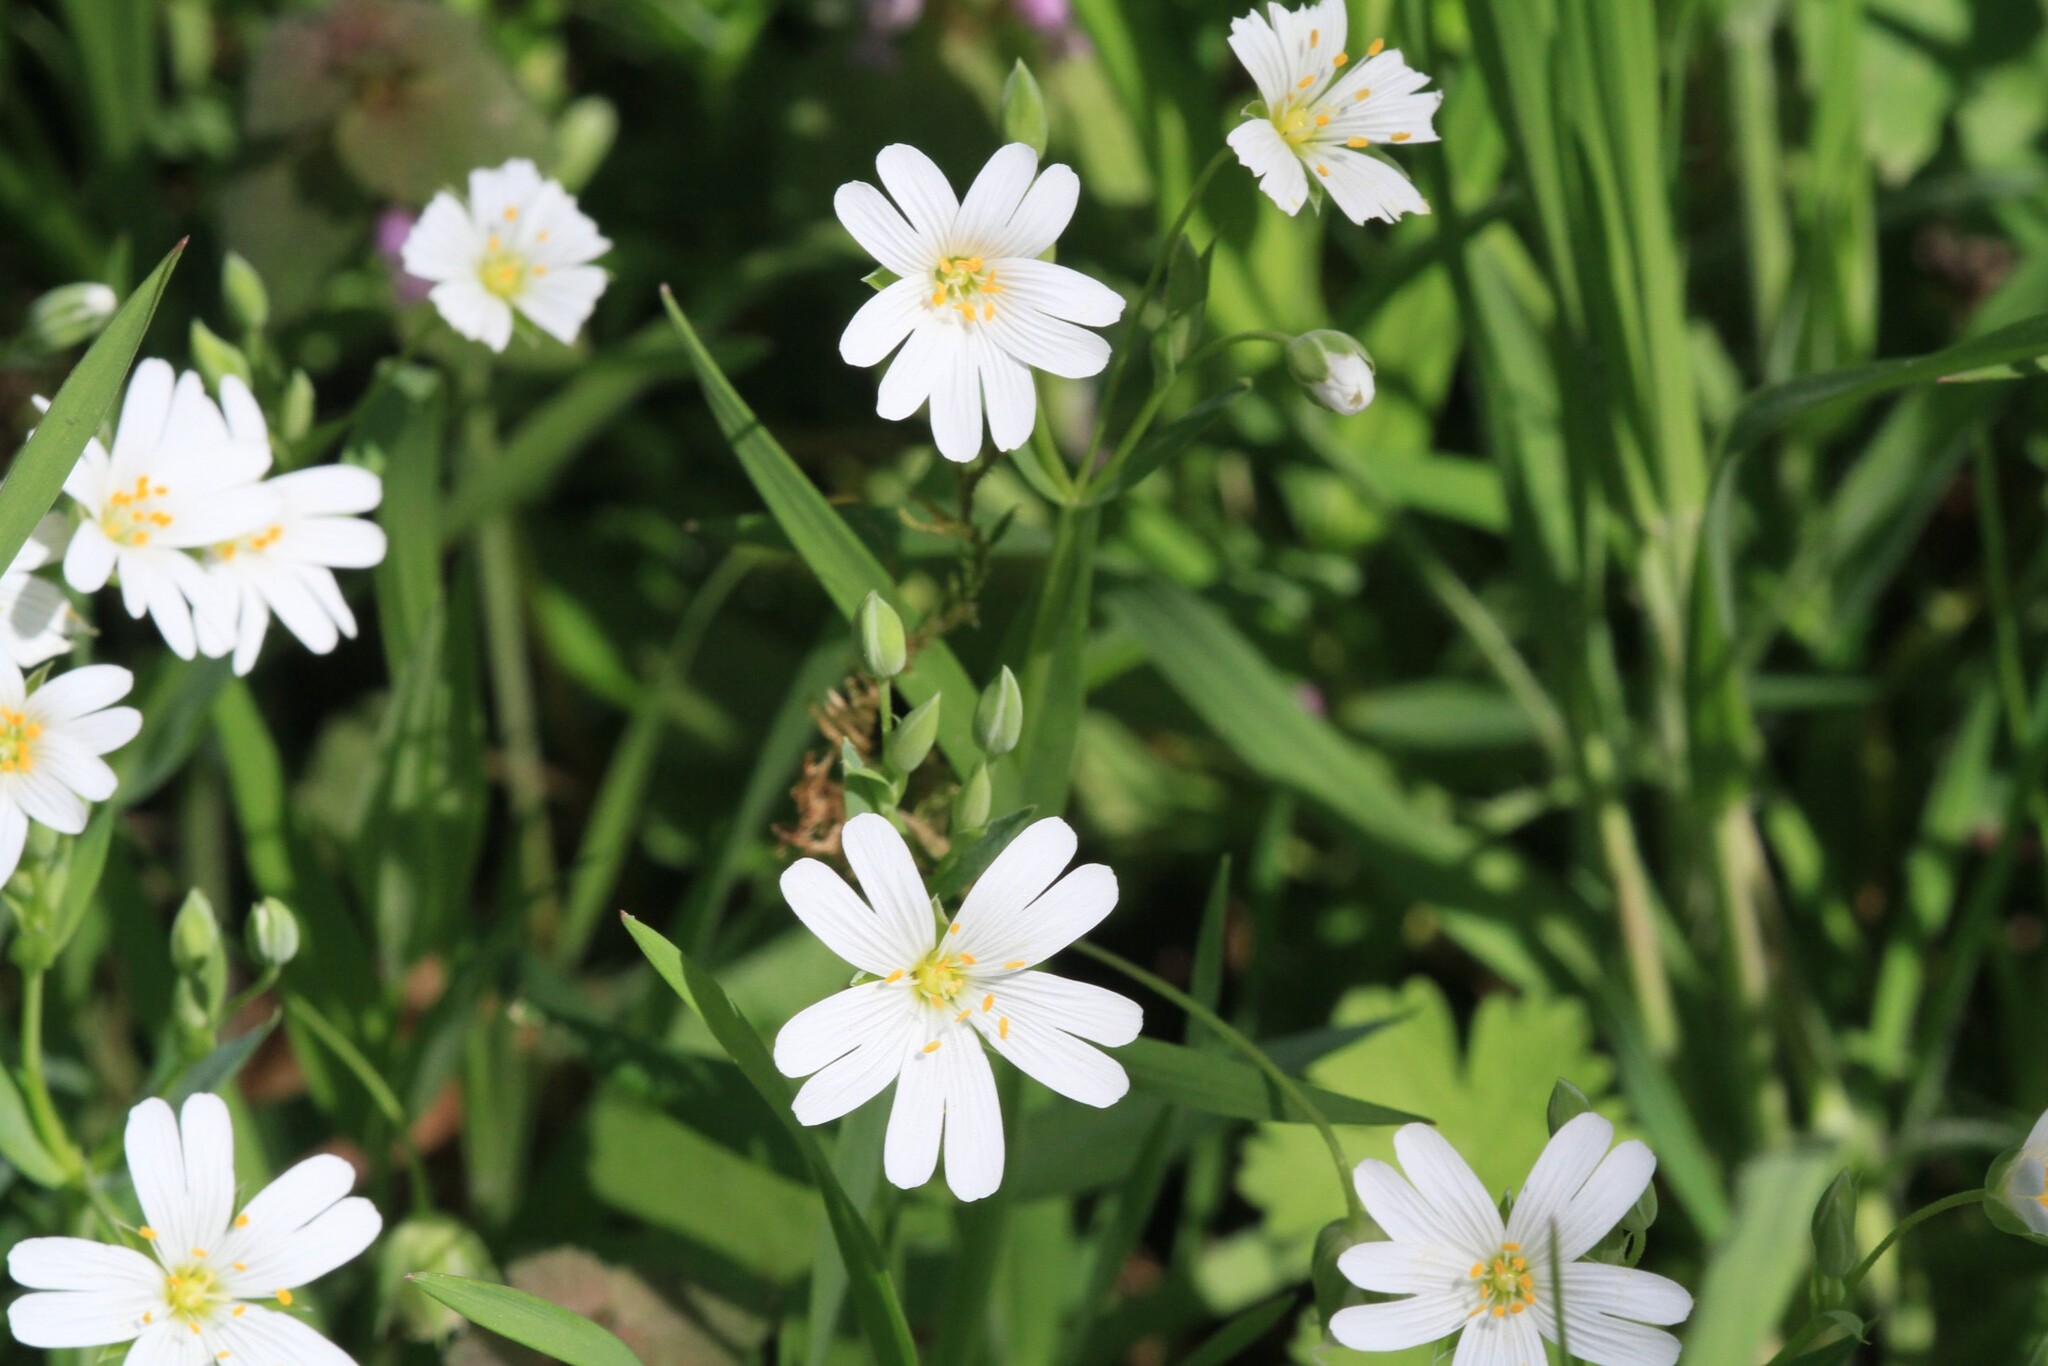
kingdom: Plantae
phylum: Tracheophyta
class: Magnoliopsida
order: Caryophyllales
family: Caryophyllaceae
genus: Rabelera
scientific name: Rabelera holostea
